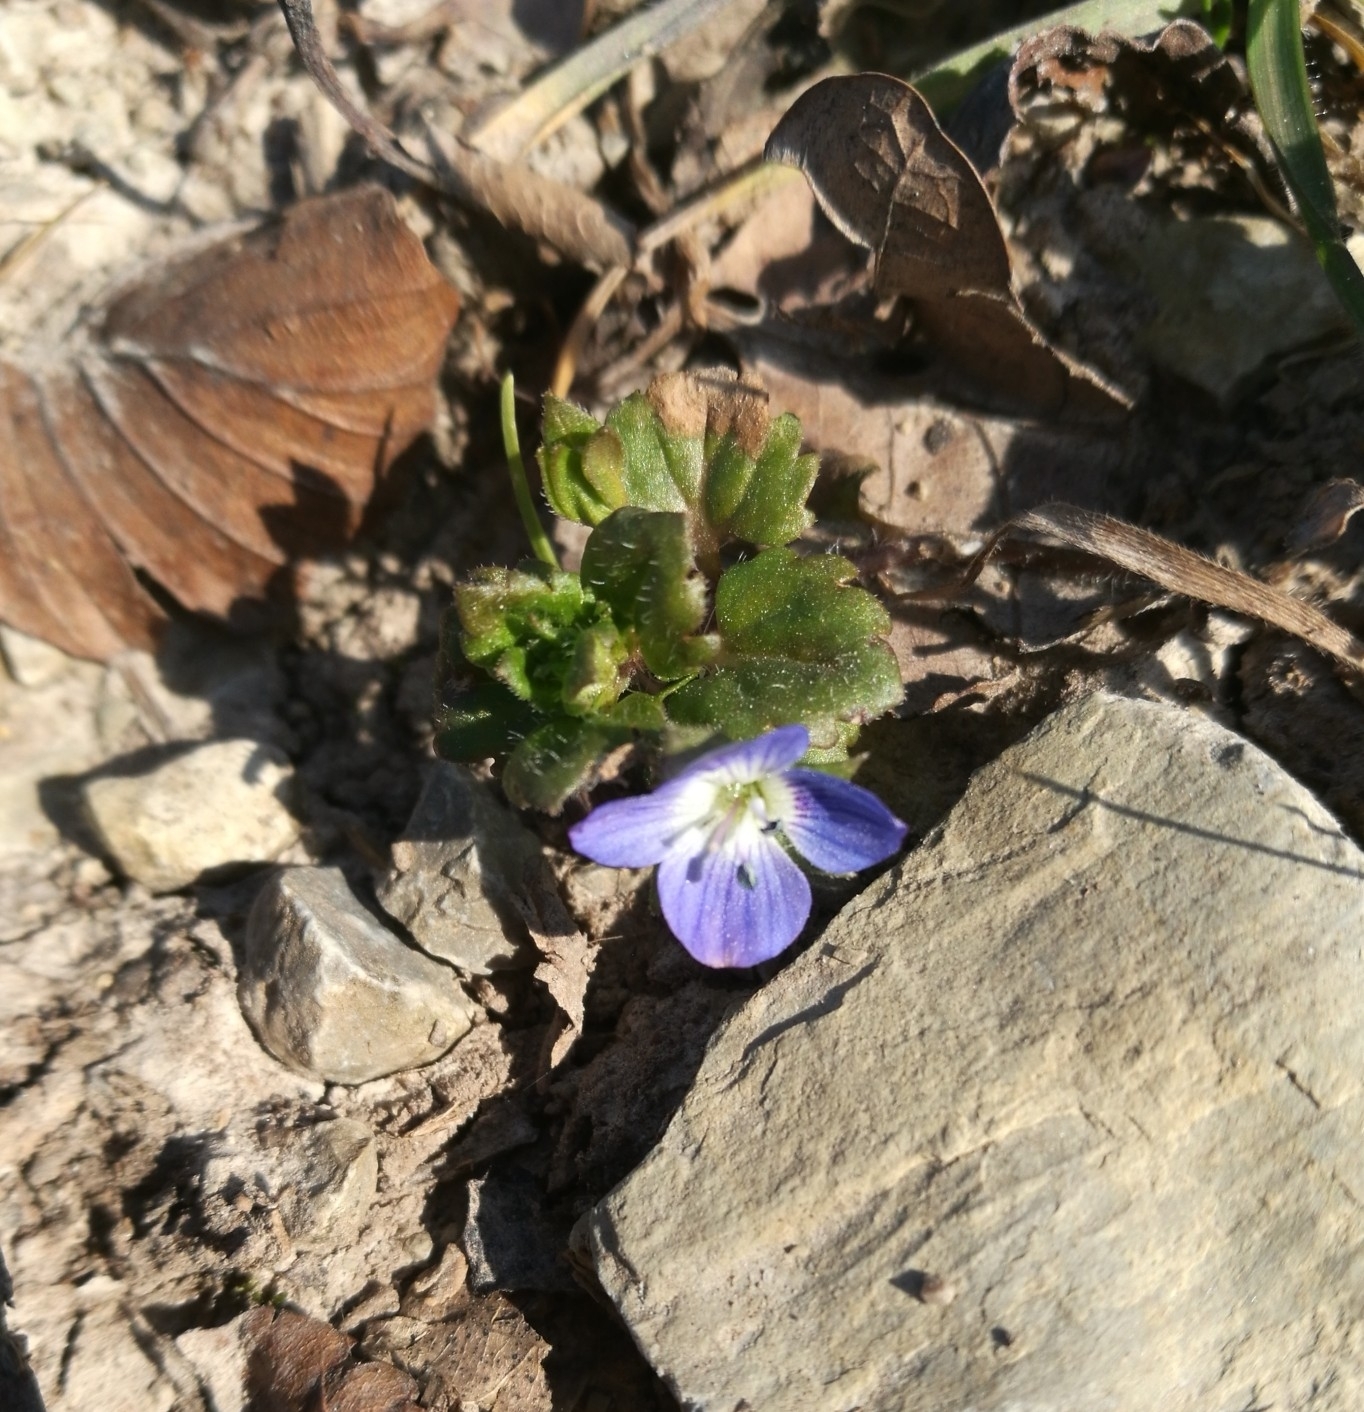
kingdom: Plantae
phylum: Tracheophyta
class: Magnoliopsida
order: Lamiales
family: Plantaginaceae
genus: Veronica
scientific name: Veronica persica
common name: Common field-speedwell
